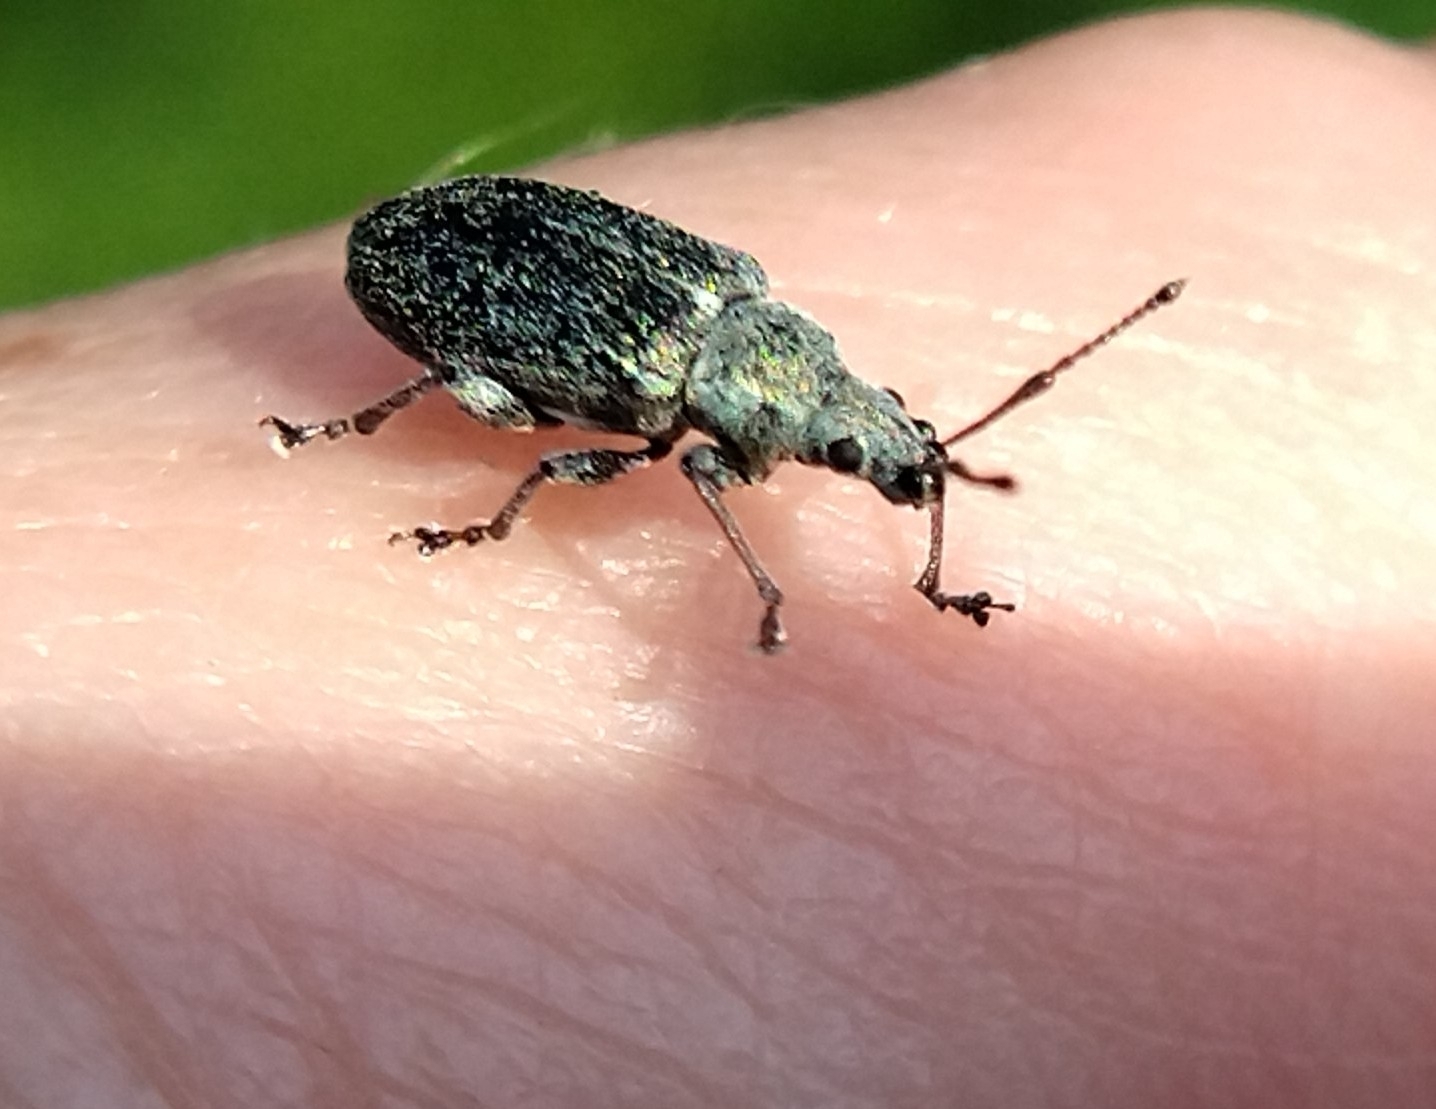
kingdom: Animalia
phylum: Arthropoda
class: Insecta
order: Coleoptera
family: Curculionidae
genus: Phyllobius
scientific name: Phyllobius pyri
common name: Common leaf weevil
